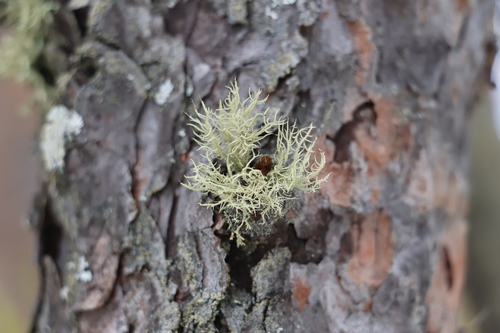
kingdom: Fungi
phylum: Ascomycota
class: Lecanoromycetes
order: Lecanorales
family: Parmeliaceae
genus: Usnea
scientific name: Usnea
